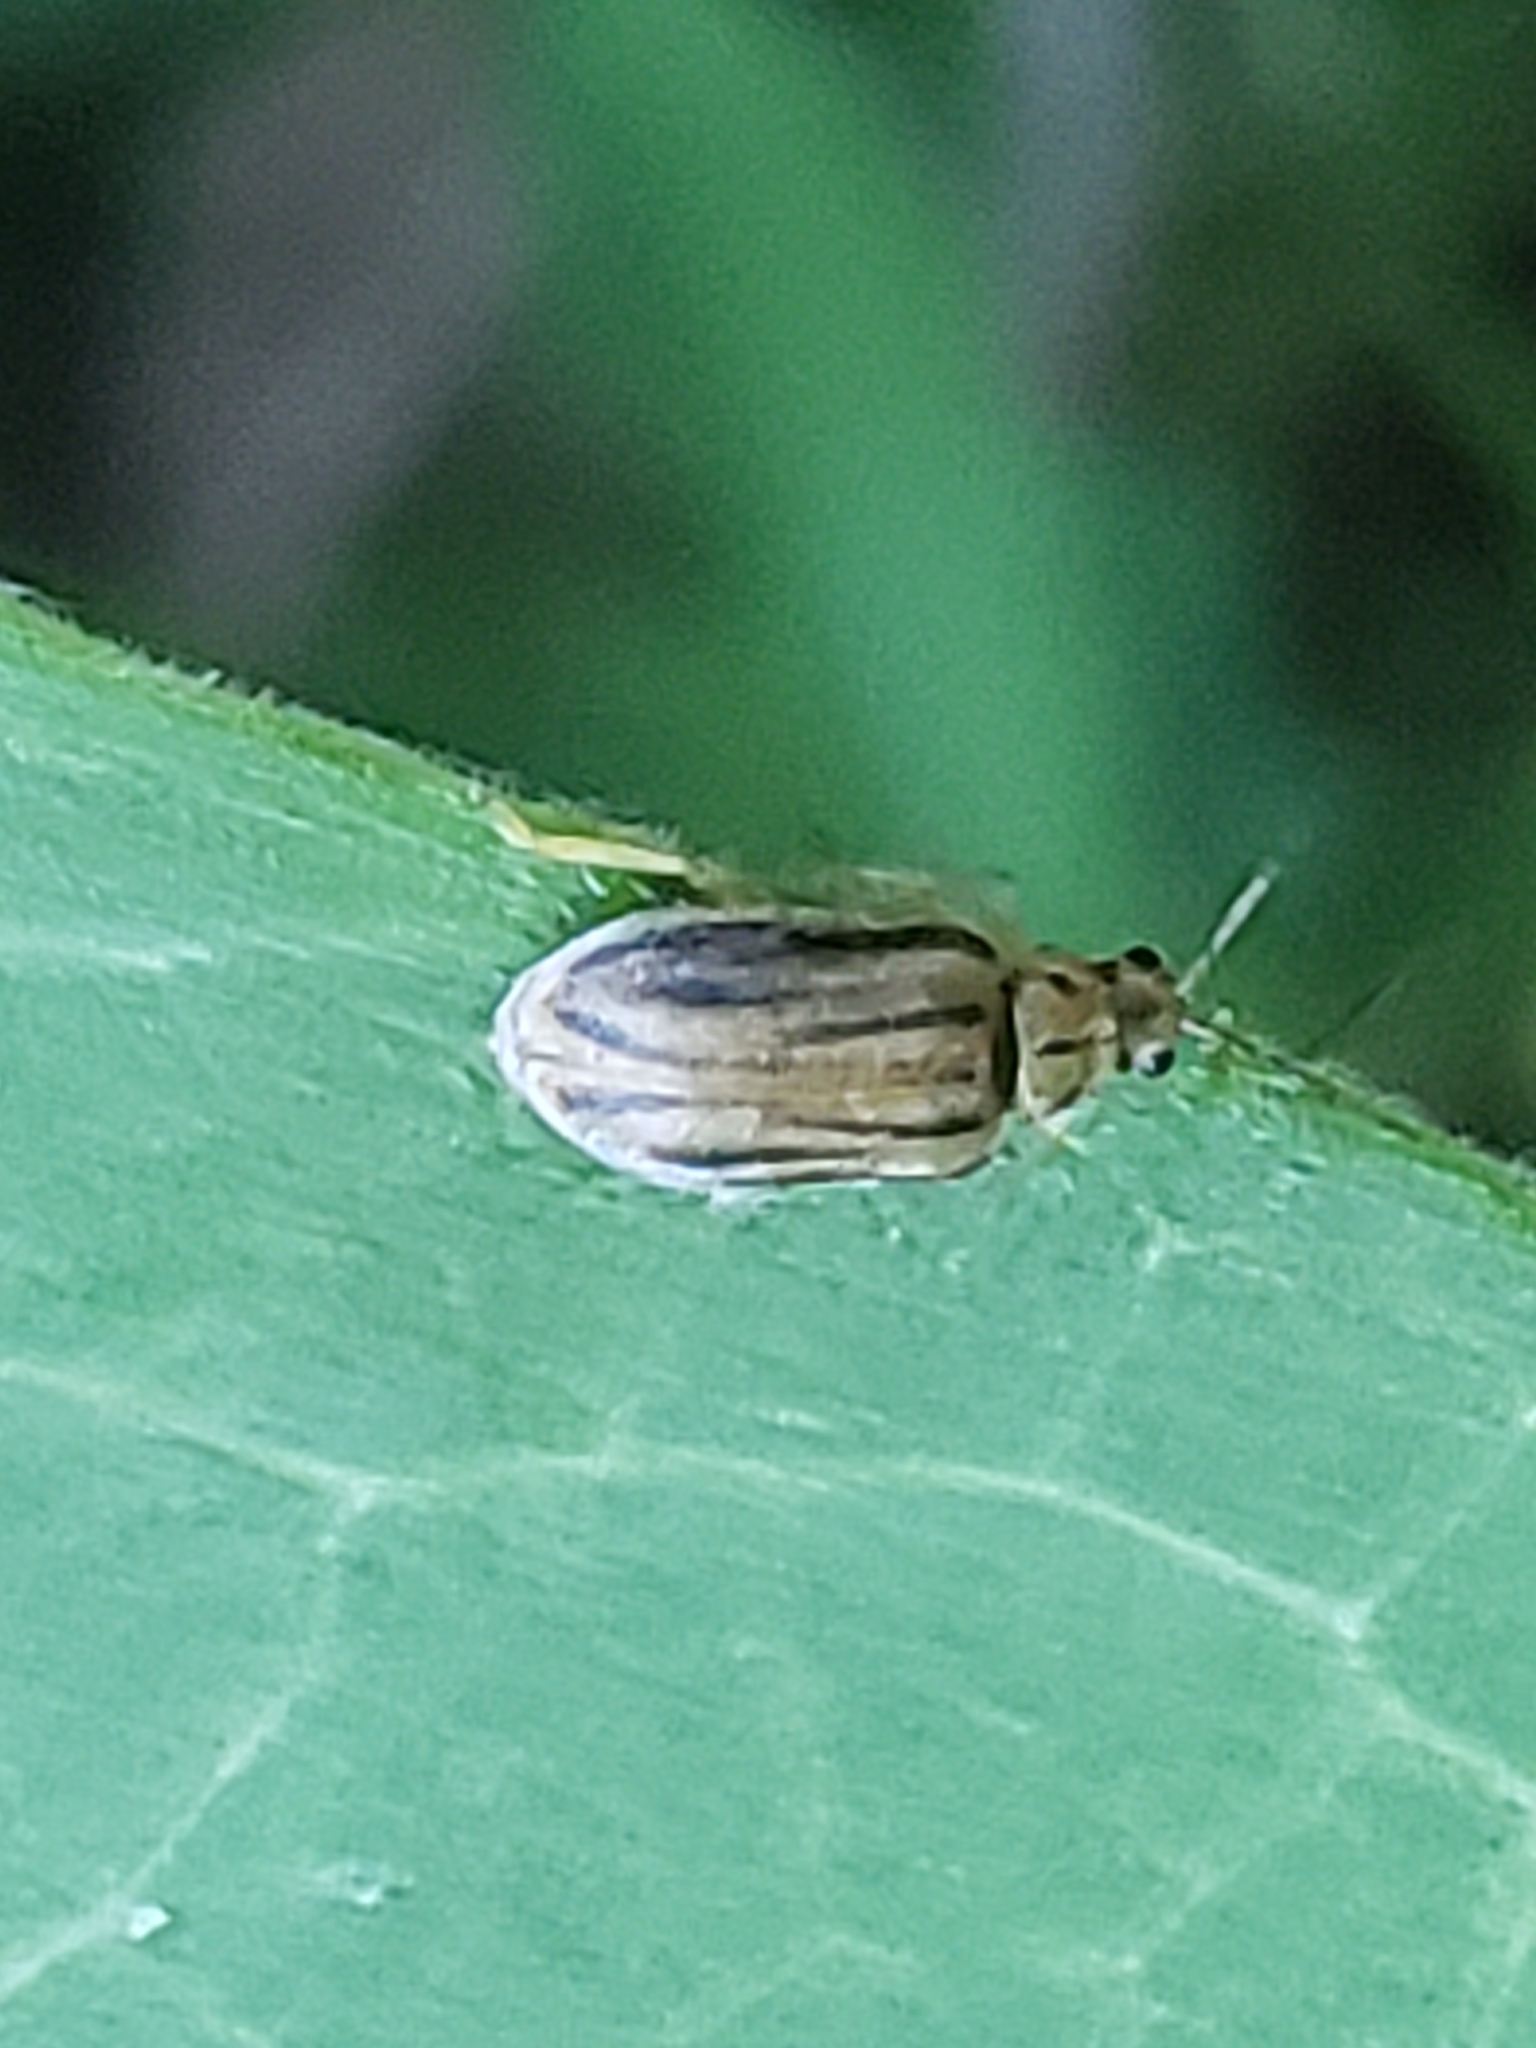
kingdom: Animalia
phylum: Arthropoda
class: Insecta
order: Coleoptera
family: Chrysomelidae
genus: Ophraella
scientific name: Ophraella communa
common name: Ragweed leaf beetle
